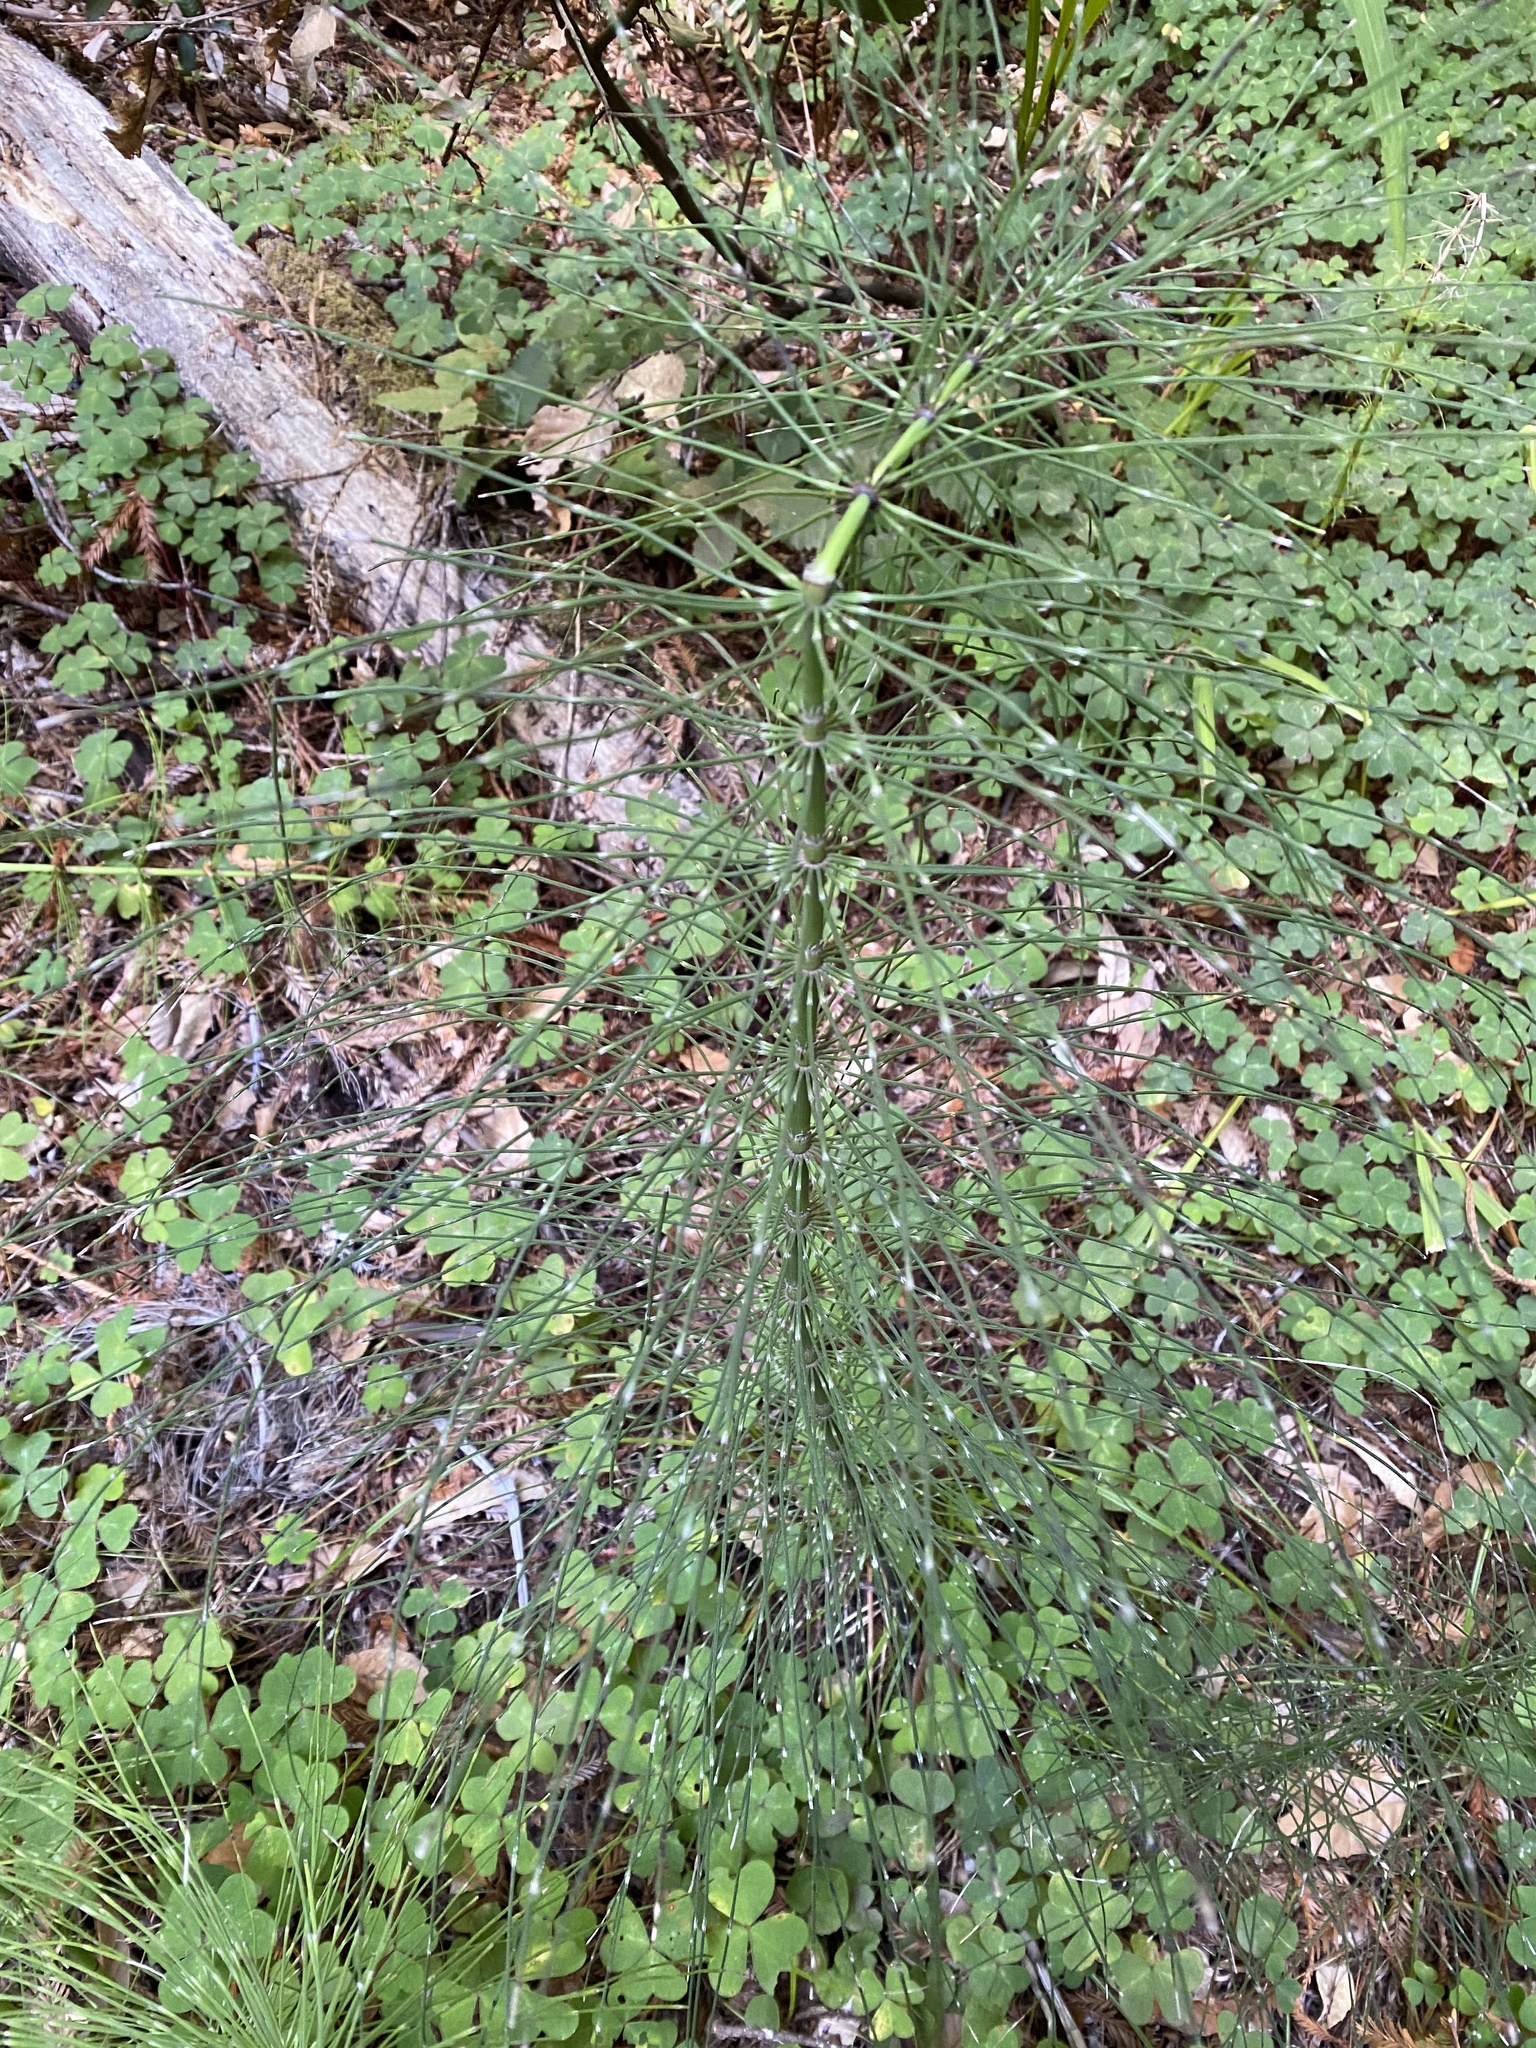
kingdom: Plantae
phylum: Tracheophyta
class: Polypodiopsida
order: Equisetales
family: Equisetaceae
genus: Equisetum
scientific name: Equisetum braunii
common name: Braun's horsetail
